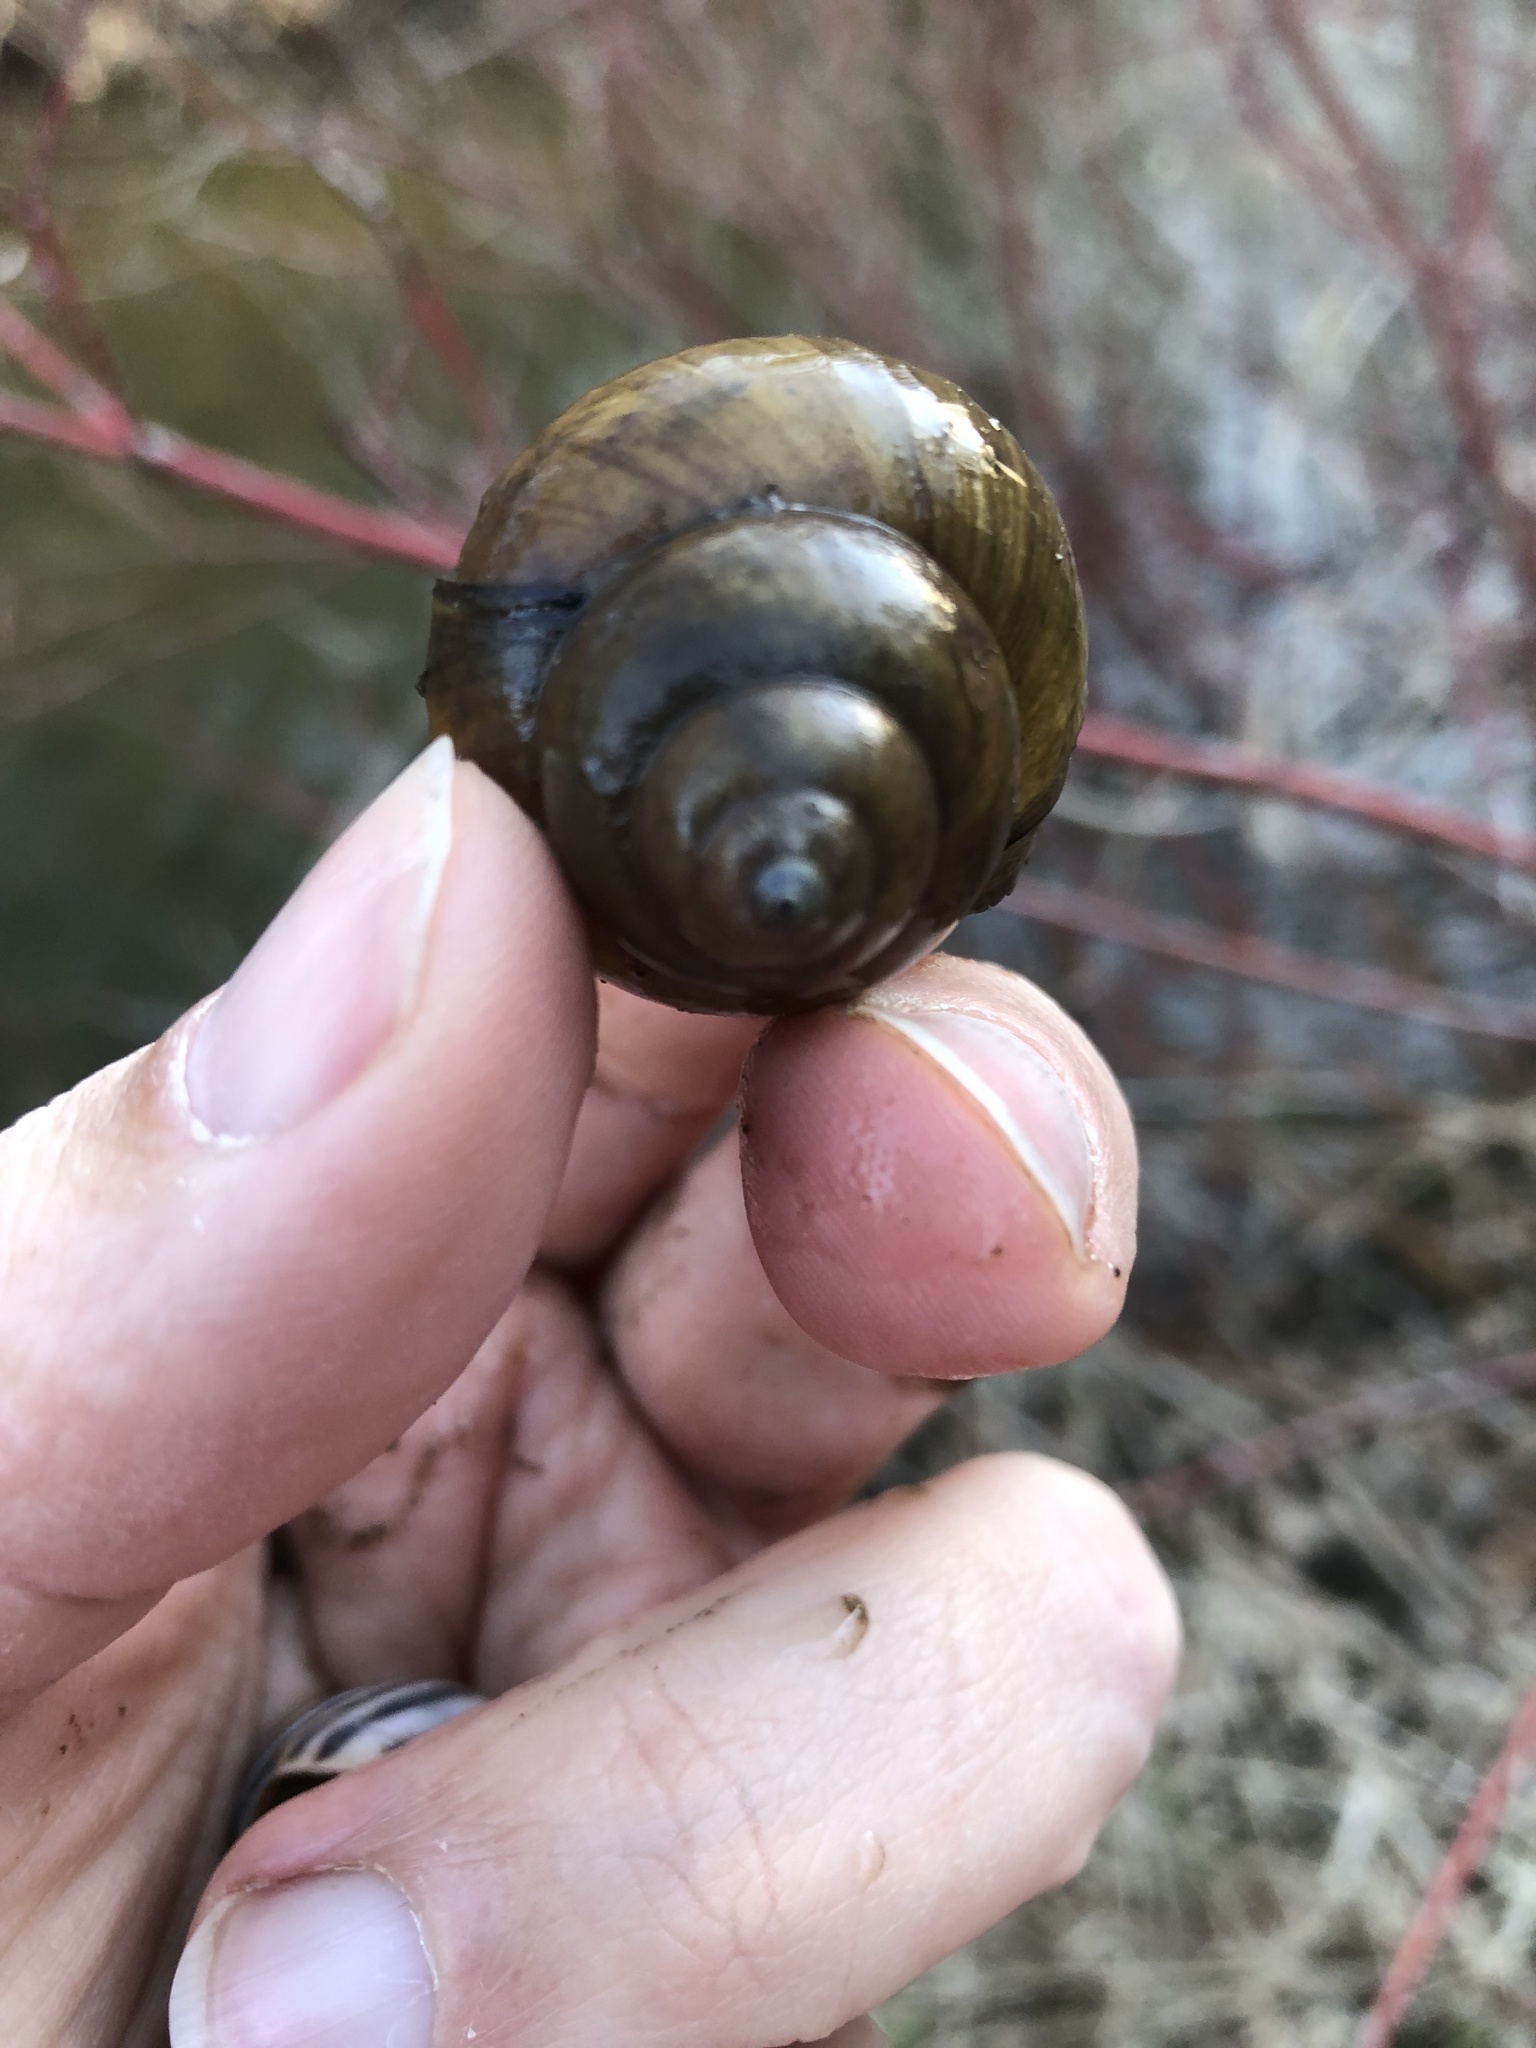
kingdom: Animalia
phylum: Mollusca
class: Gastropoda
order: Architaenioglossa
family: Viviparidae
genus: Cipangopaludina
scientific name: Cipangopaludina chinensis
